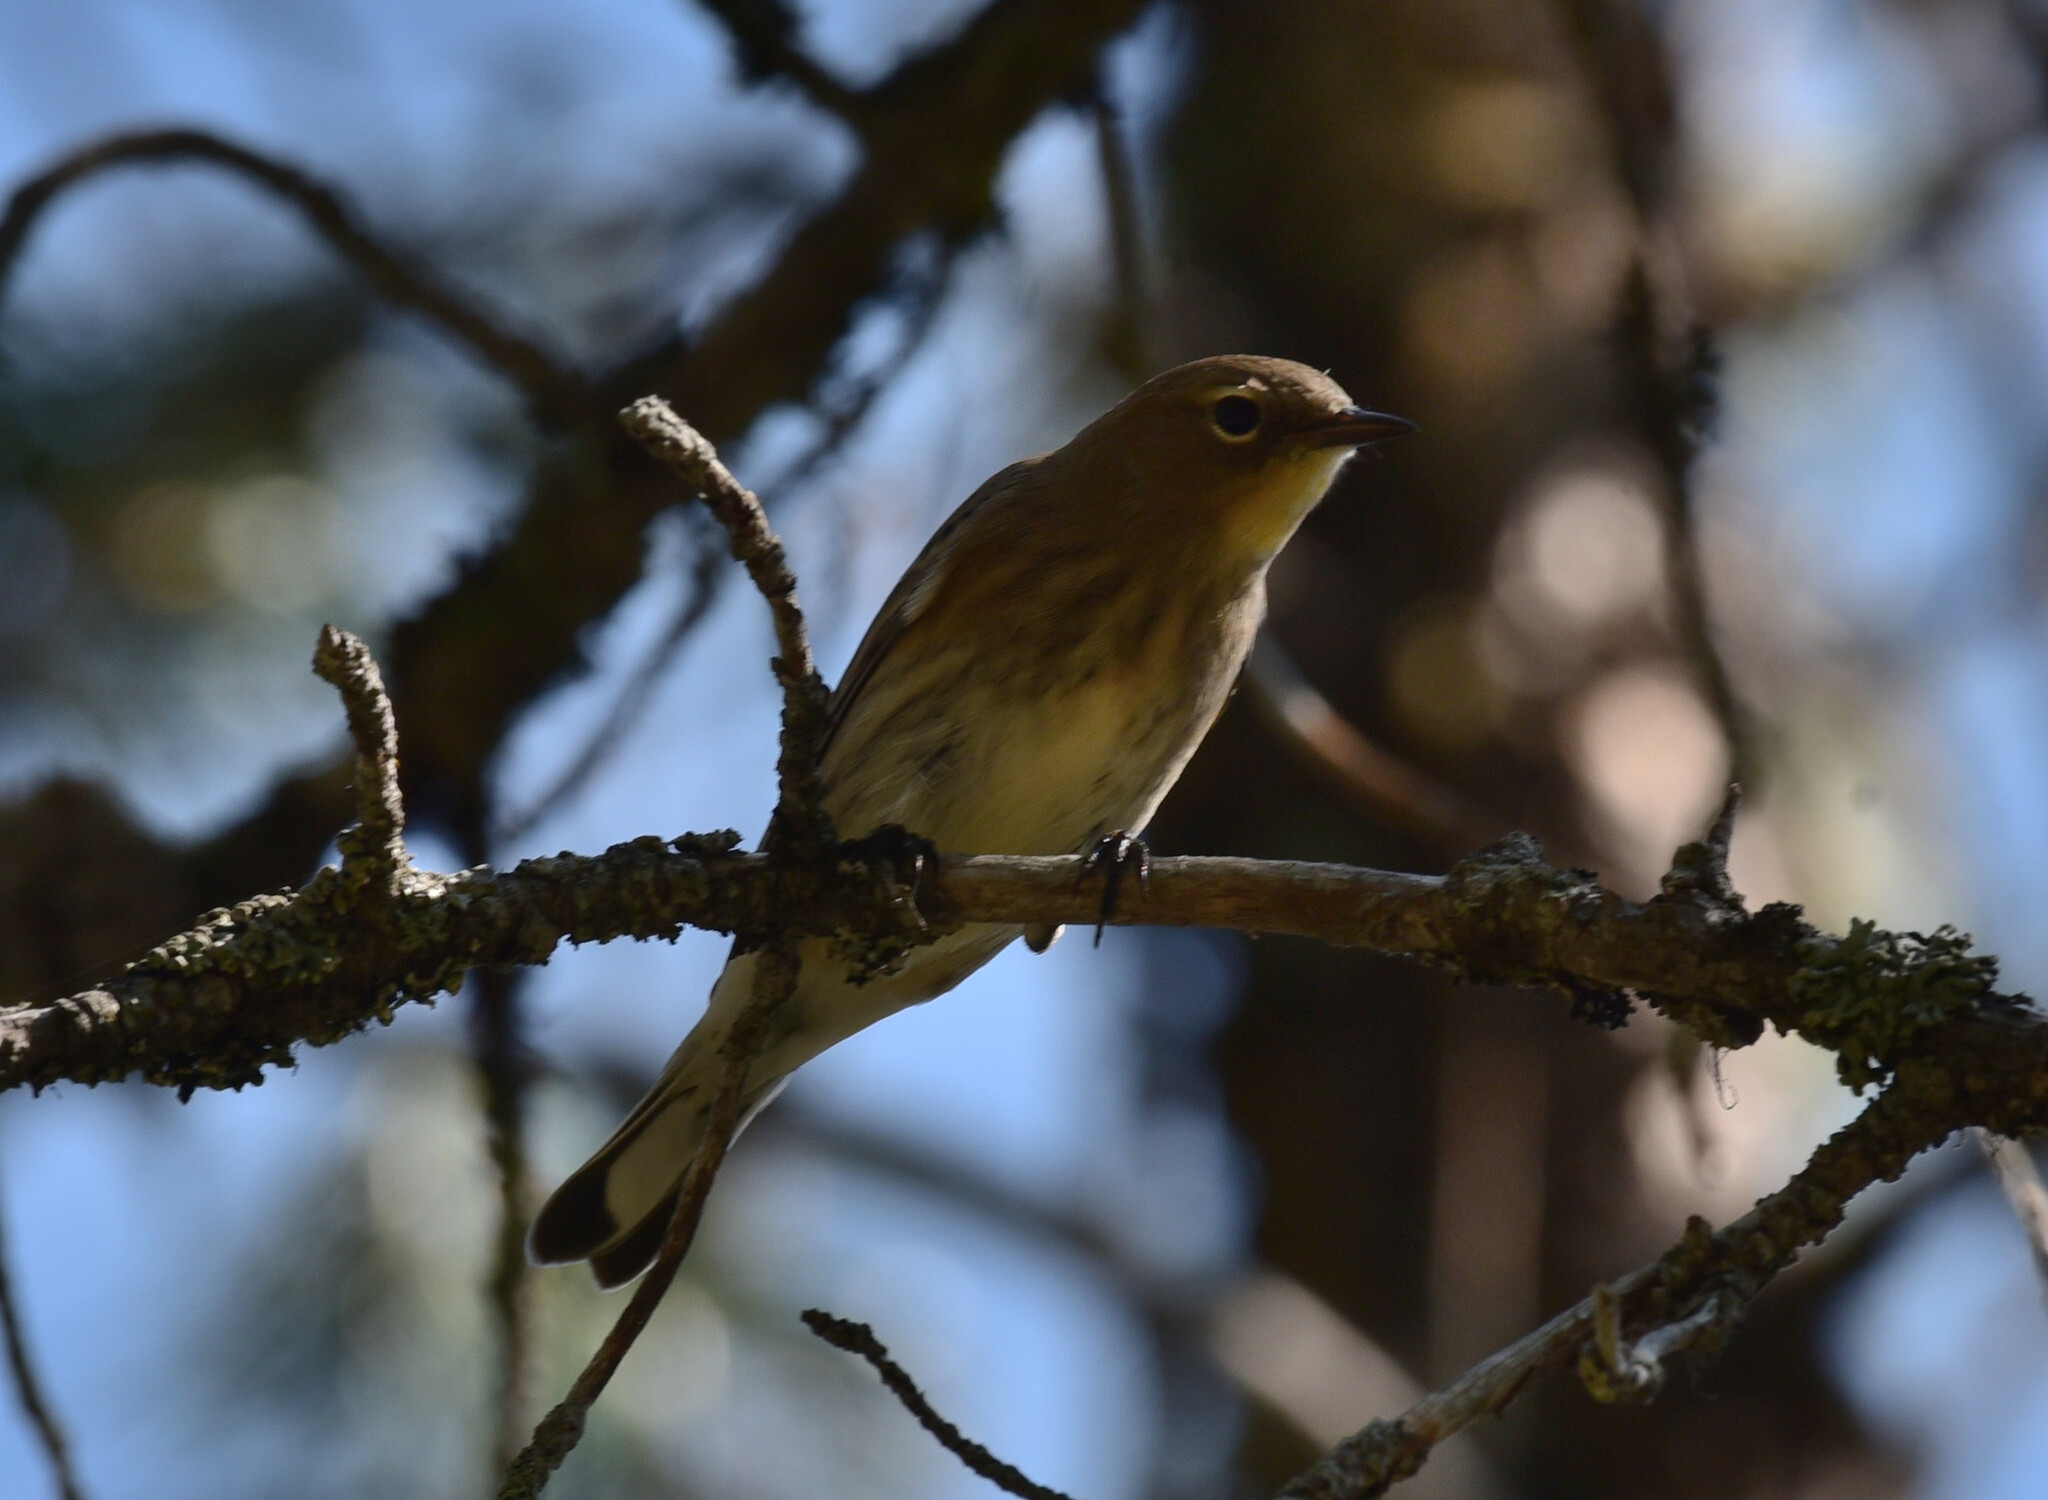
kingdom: Animalia
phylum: Chordata
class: Aves
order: Passeriformes
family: Parulidae
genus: Setophaga
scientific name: Setophaga coronata
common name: Myrtle warbler
